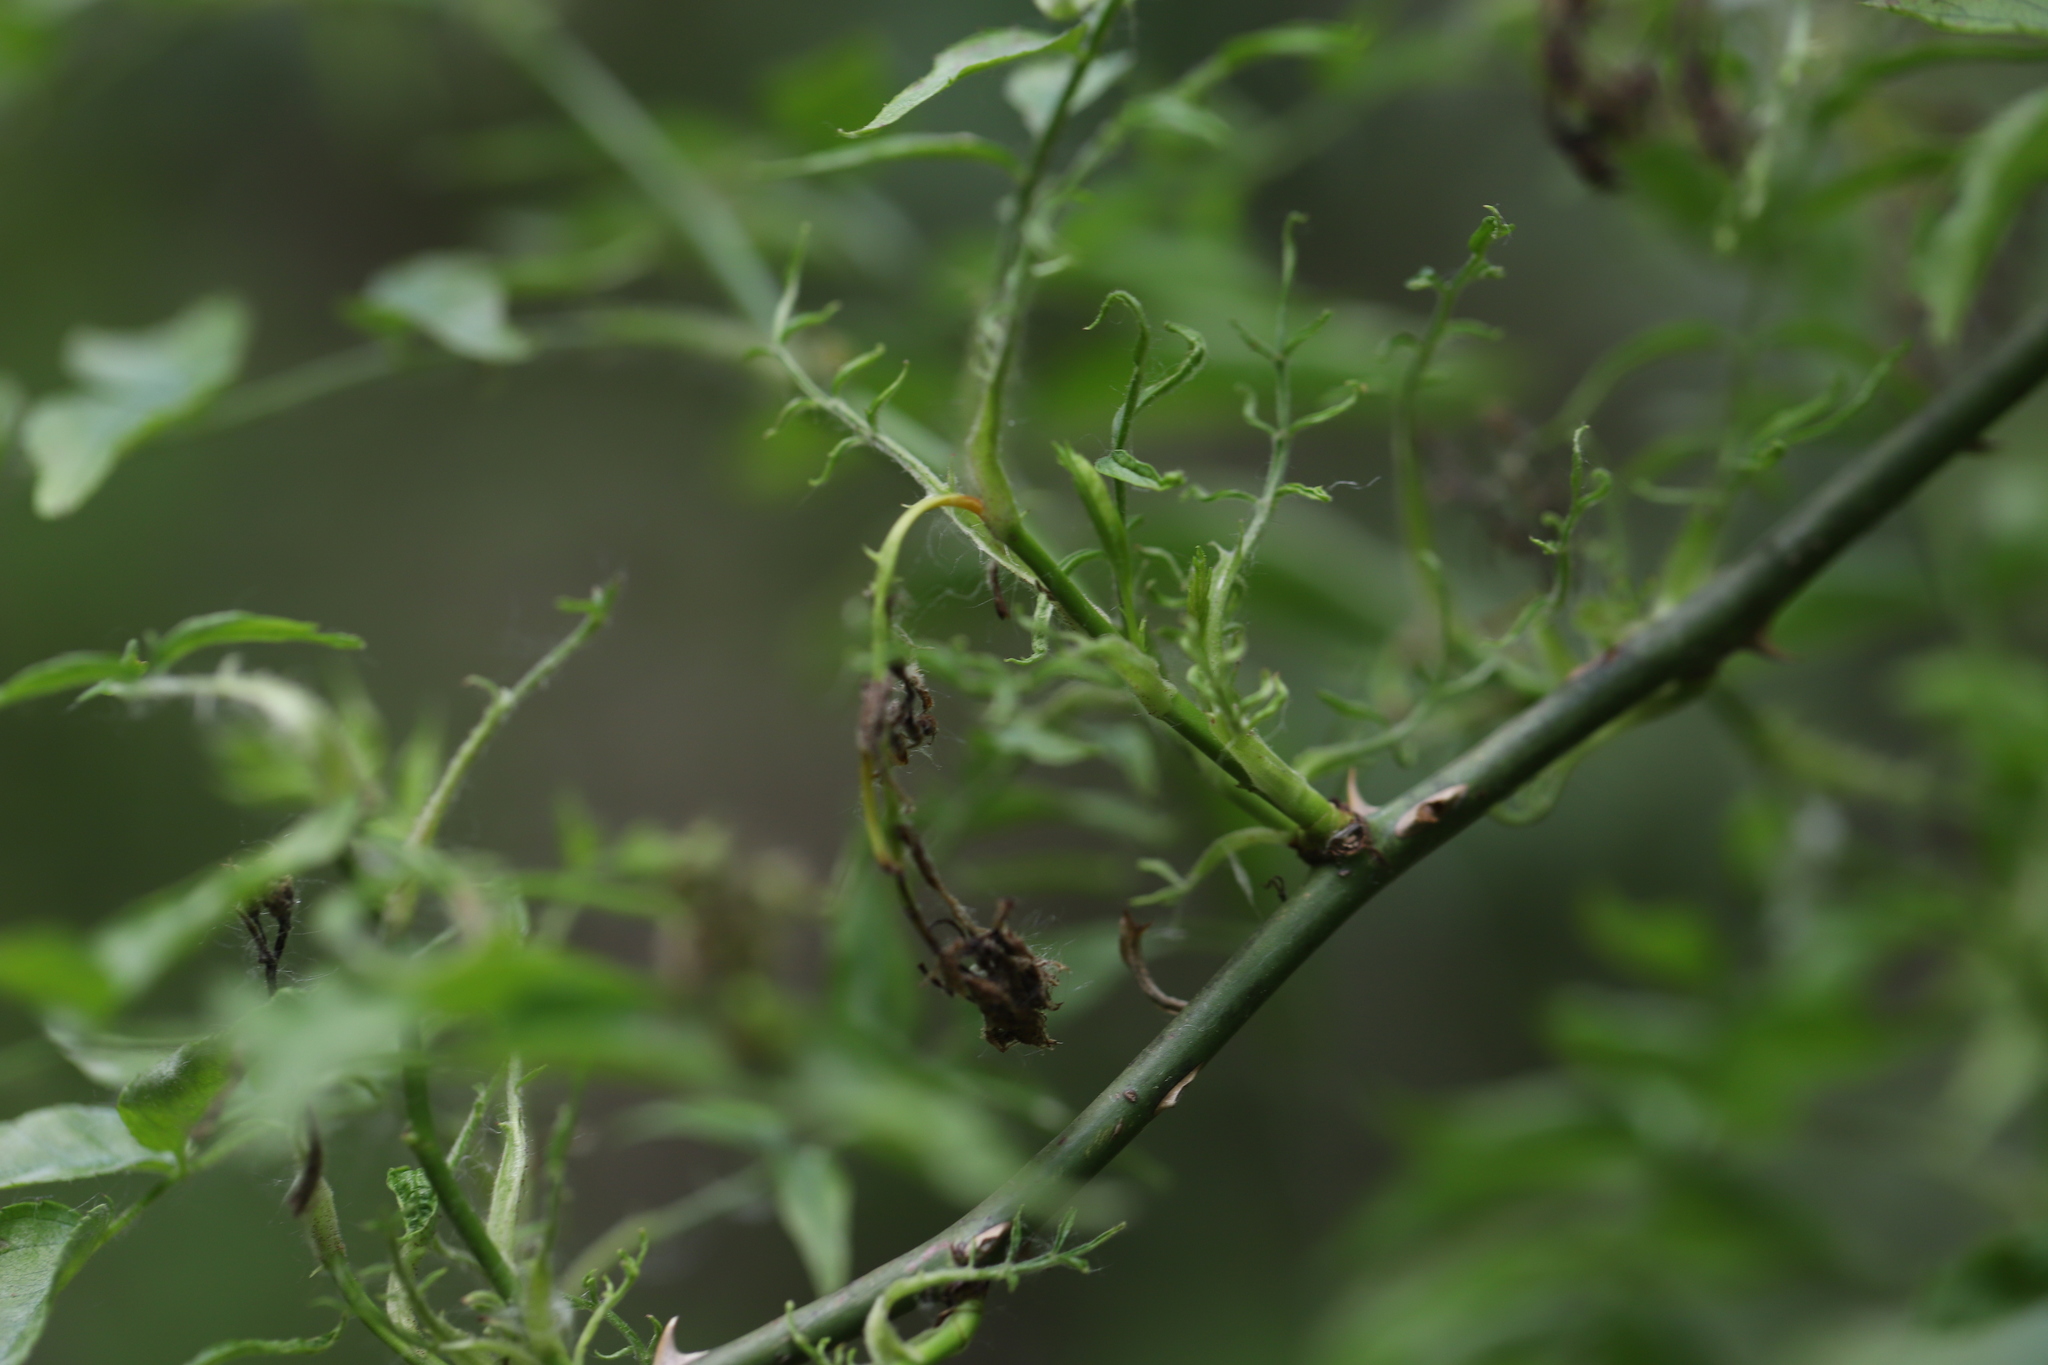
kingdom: Viruses
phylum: Negarnaviricota
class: Ellioviricetes
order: Bunyavirales
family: Fimoviridae
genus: Emaravirus
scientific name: Emaravirus rosae
